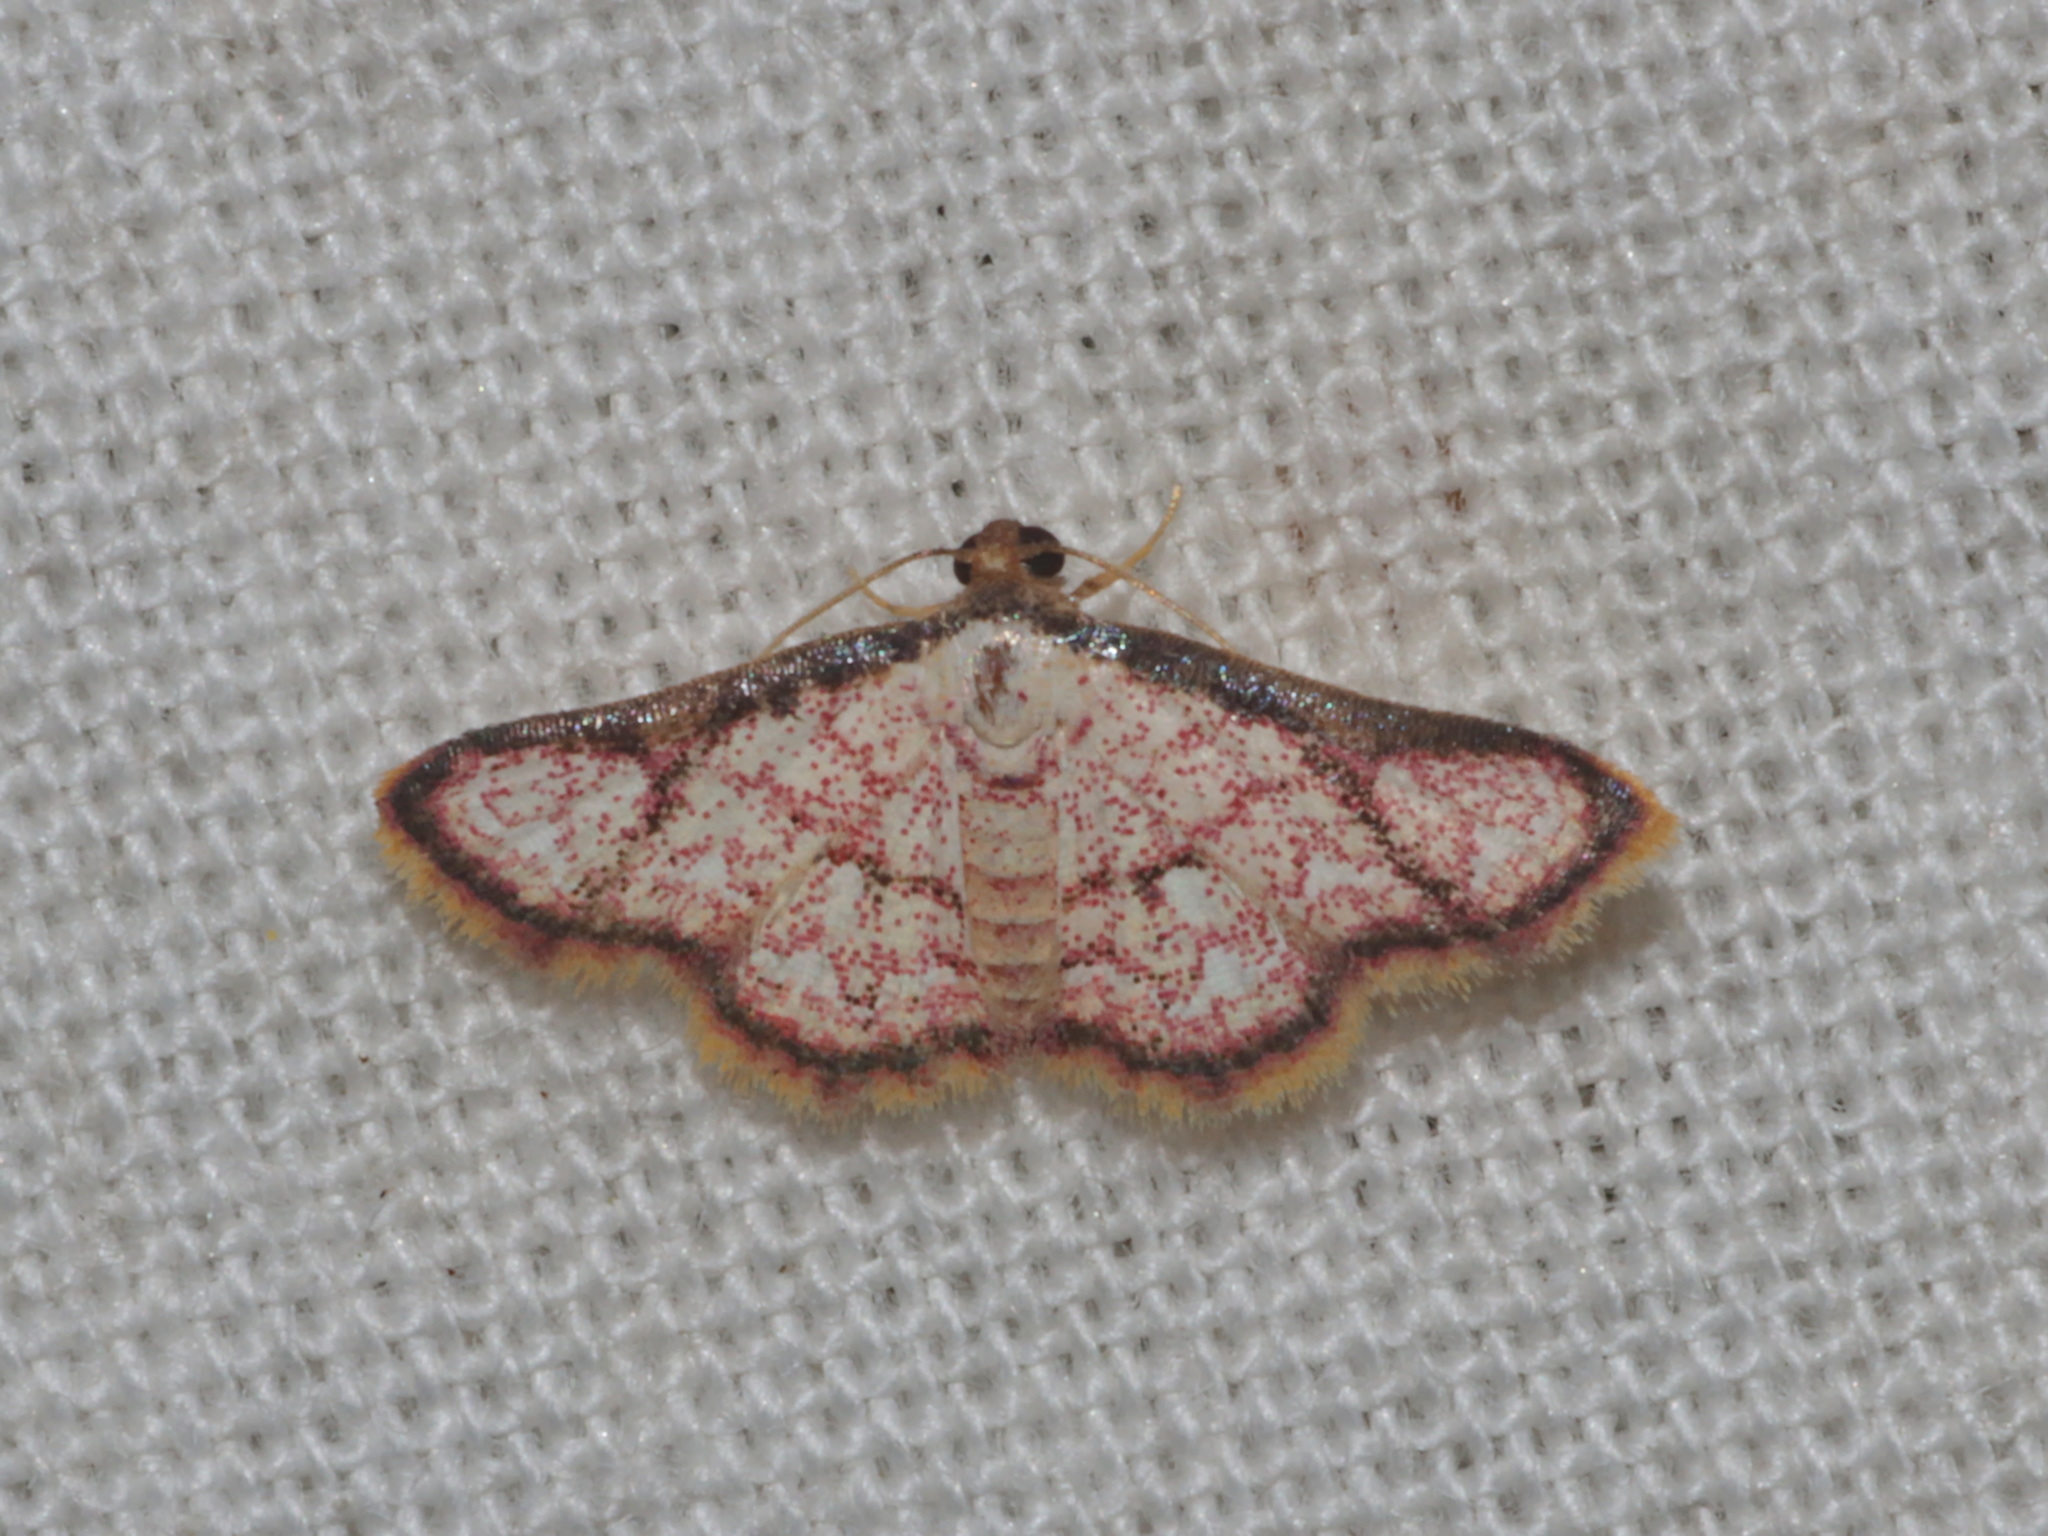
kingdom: Animalia
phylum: Arthropoda
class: Insecta
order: Lepidoptera
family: Noctuidae
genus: Enispa
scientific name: Enispa rosellaria
